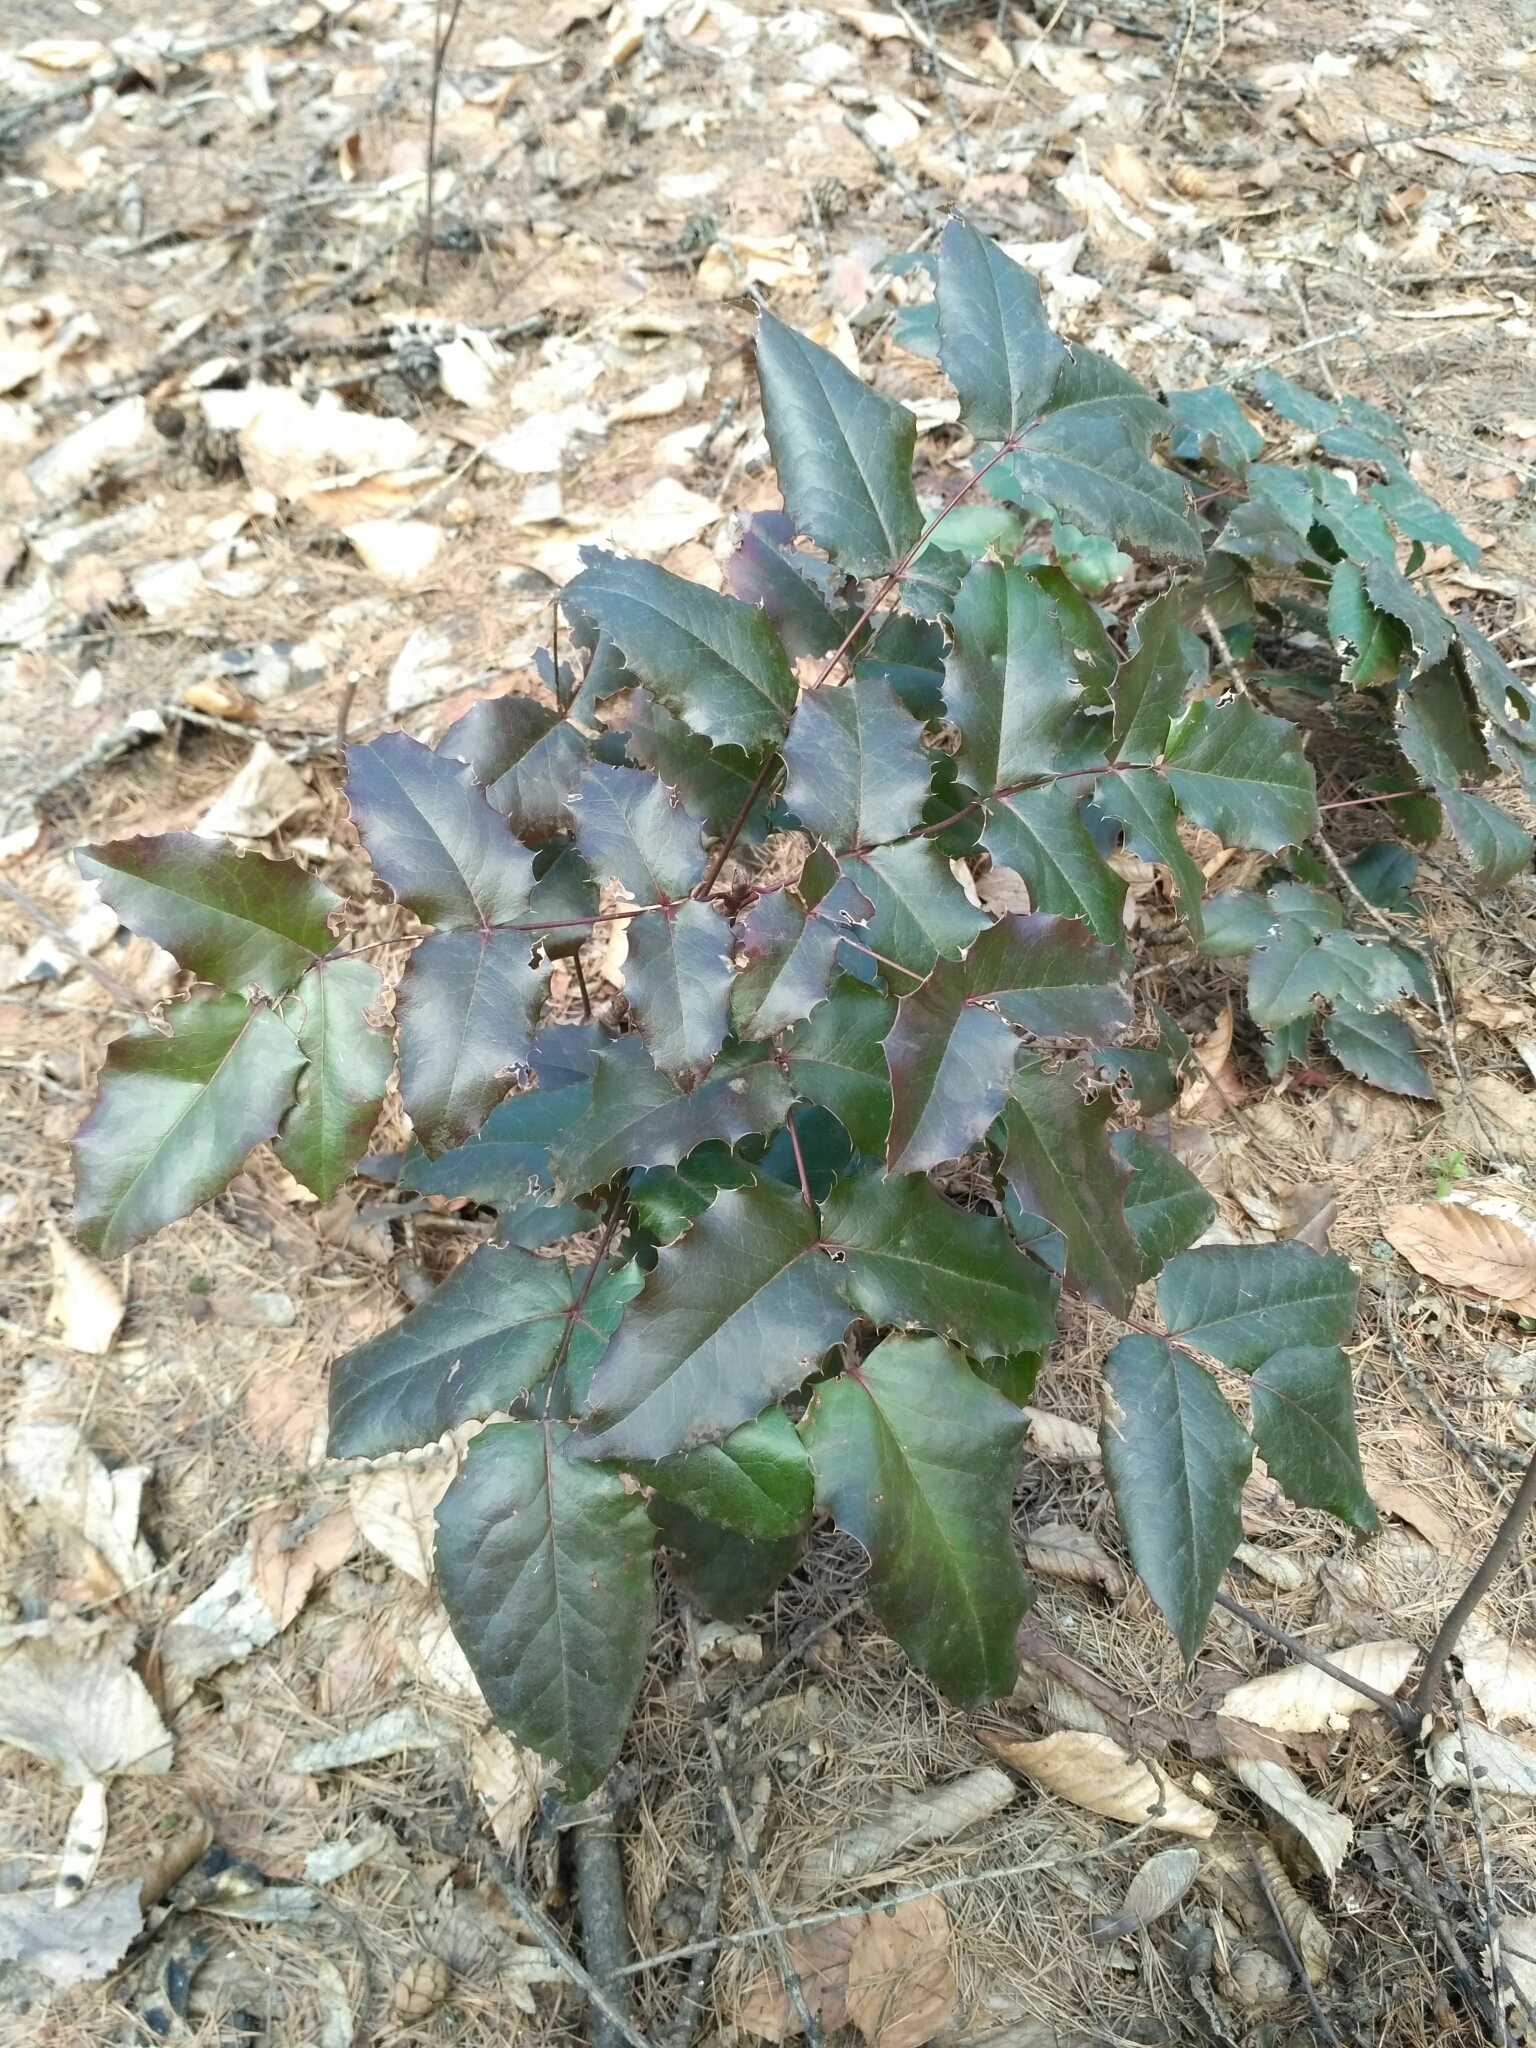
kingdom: Plantae
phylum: Tracheophyta
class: Magnoliopsida
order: Ranunculales
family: Berberidaceae
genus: Mahonia
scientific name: Mahonia aquifolium
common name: Oregon-grape
